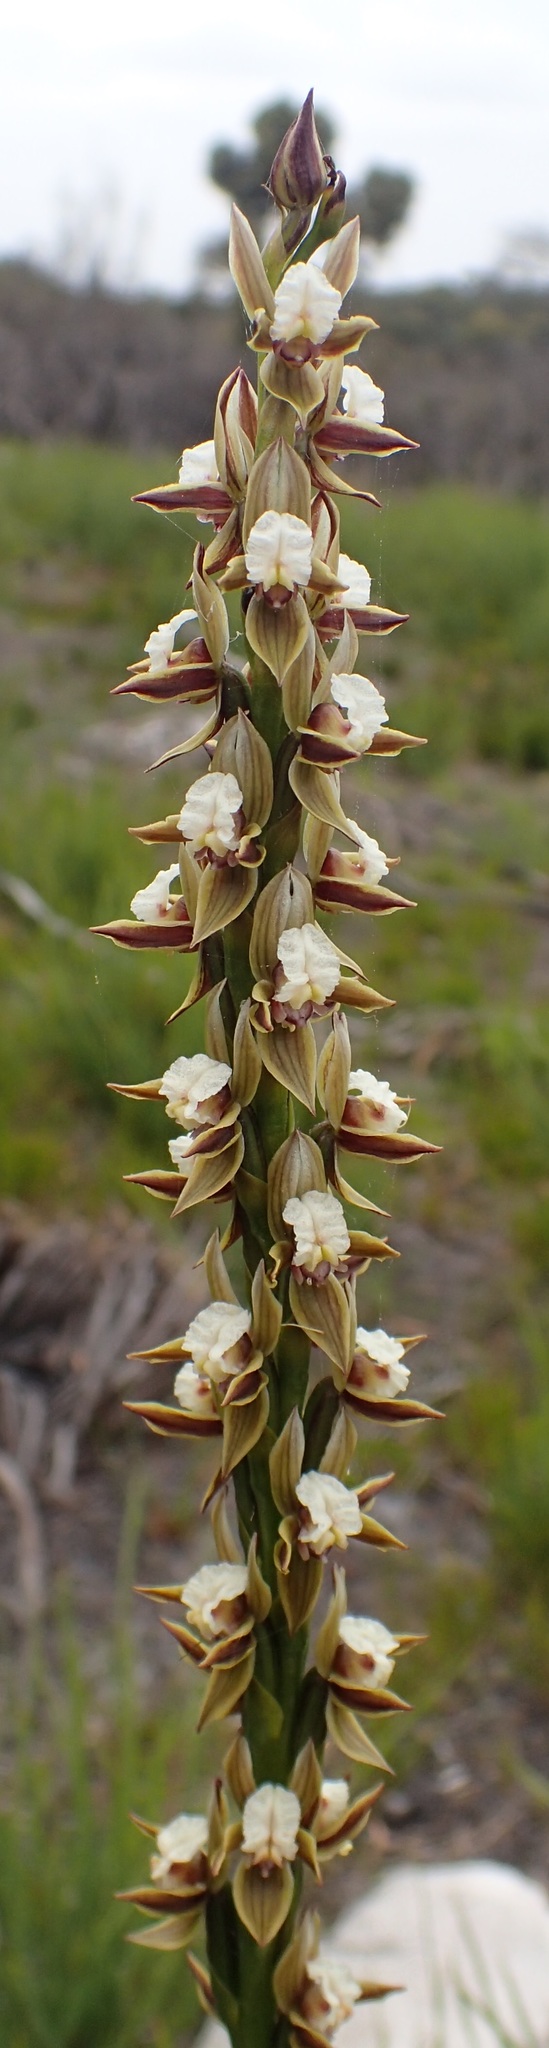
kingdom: Plantae
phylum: Tracheophyta
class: Liliopsida
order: Asparagales
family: Orchidaceae
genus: Prasophyllum
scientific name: Prasophyllum australe
